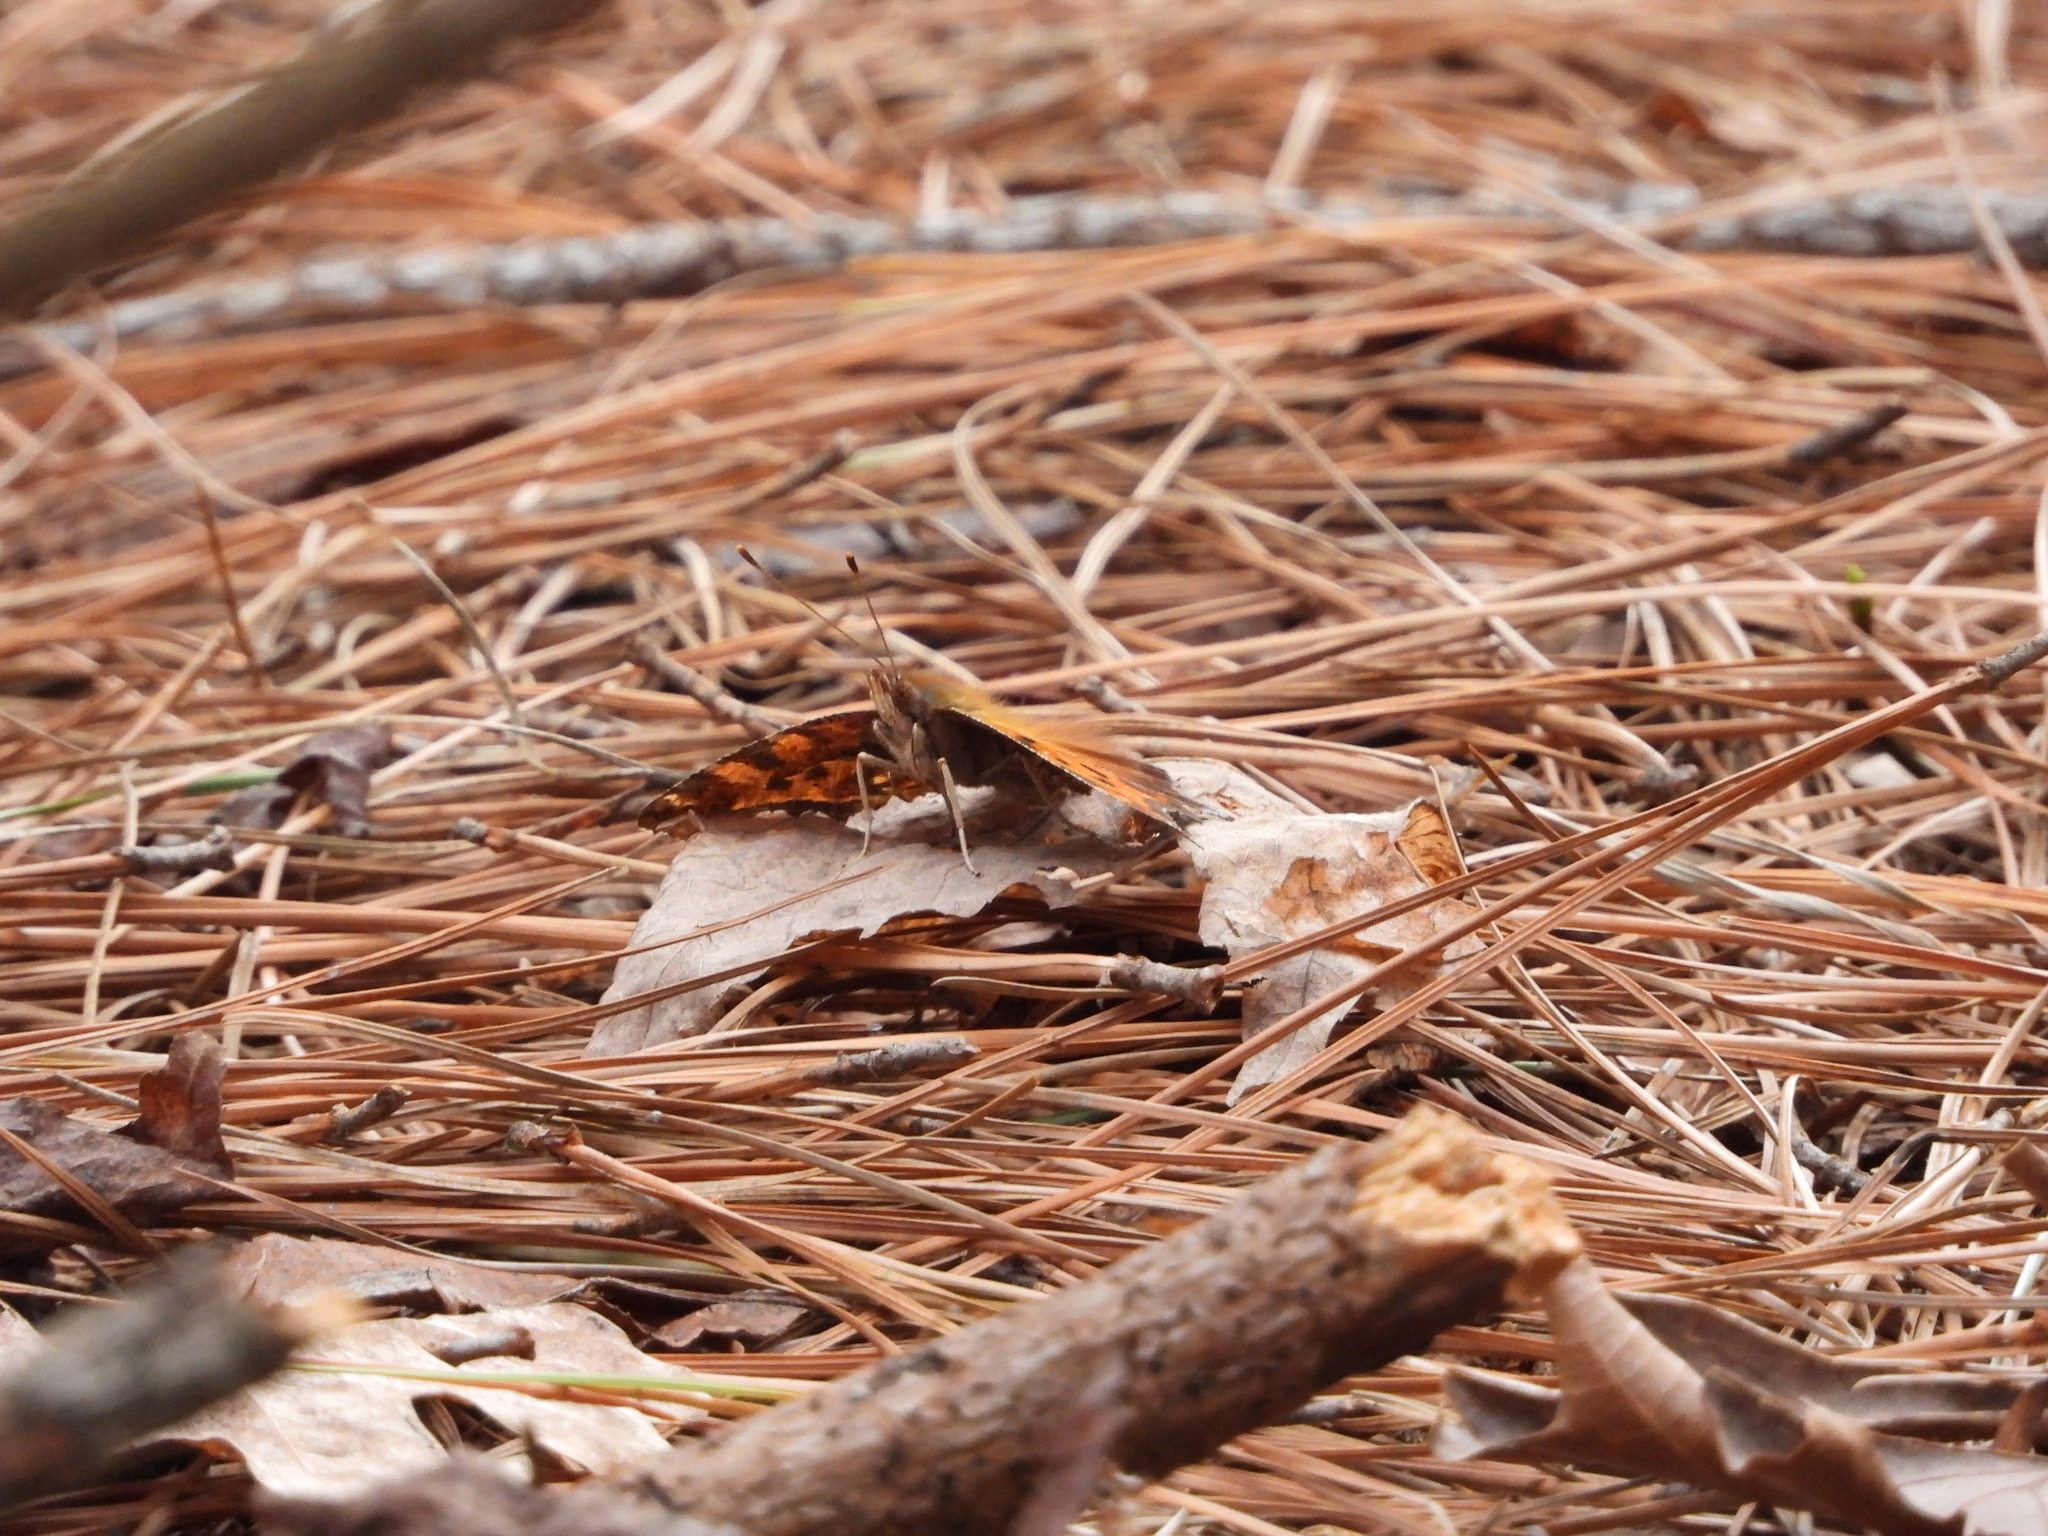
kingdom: Animalia
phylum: Arthropoda
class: Insecta
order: Lepidoptera
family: Nymphalidae
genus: Polygonia
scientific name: Polygonia comma
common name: Eastern comma
